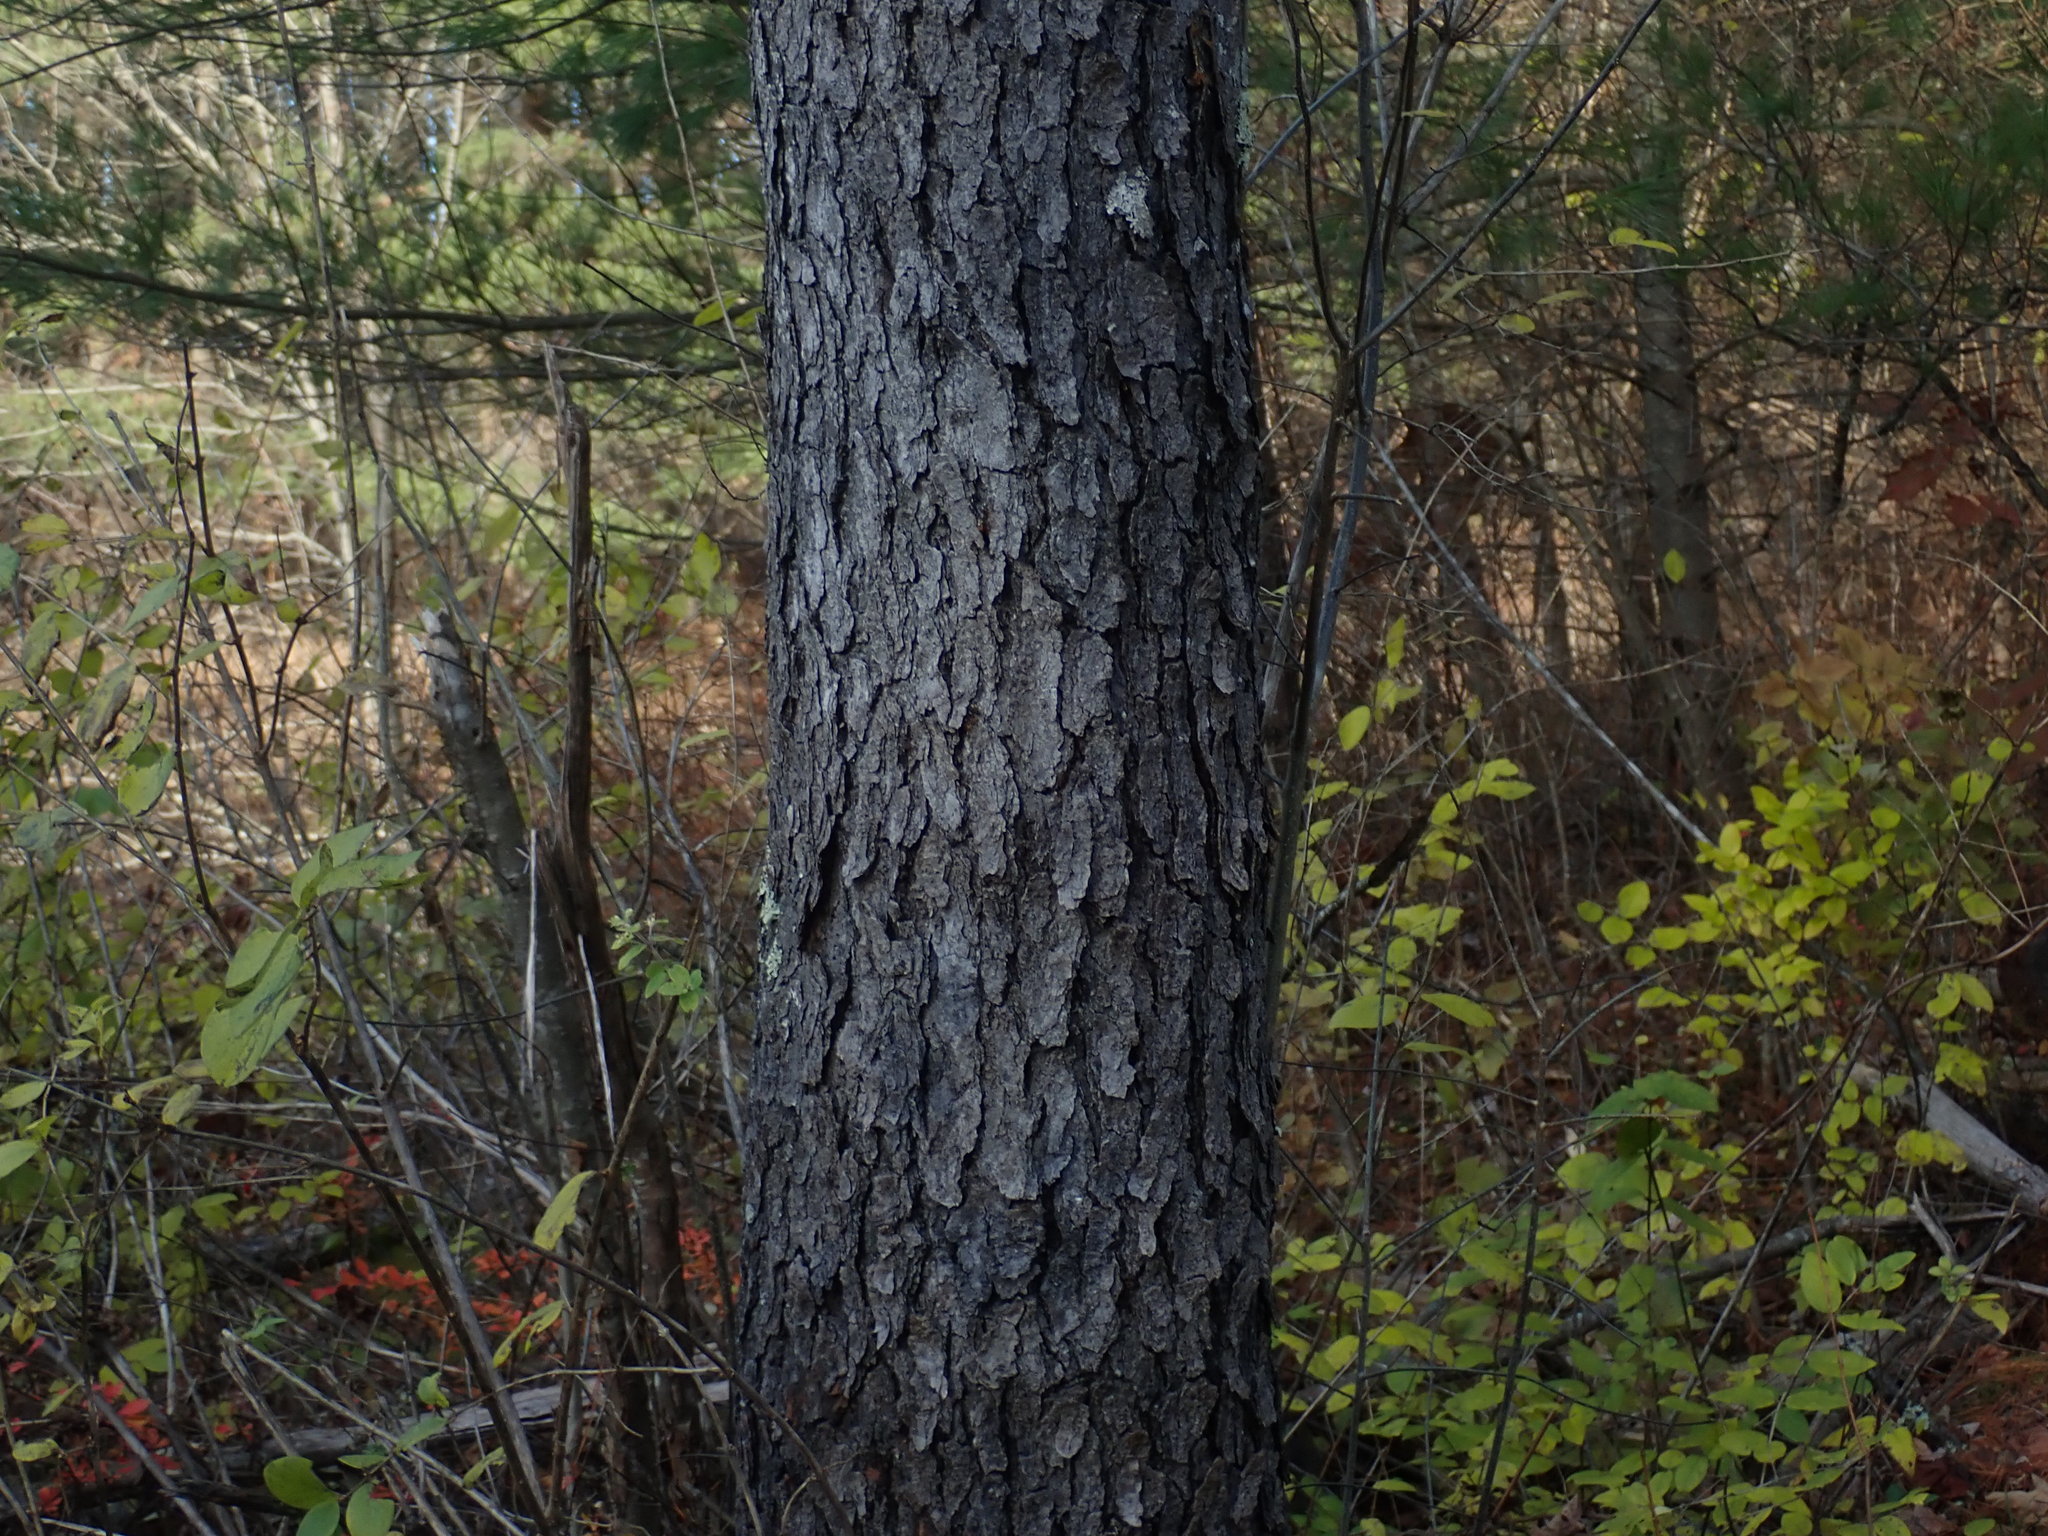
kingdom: Plantae
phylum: Tracheophyta
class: Magnoliopsida
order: Rosales
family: Rosaceae
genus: Prunus
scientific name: Prunus serotina
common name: Black cherry
